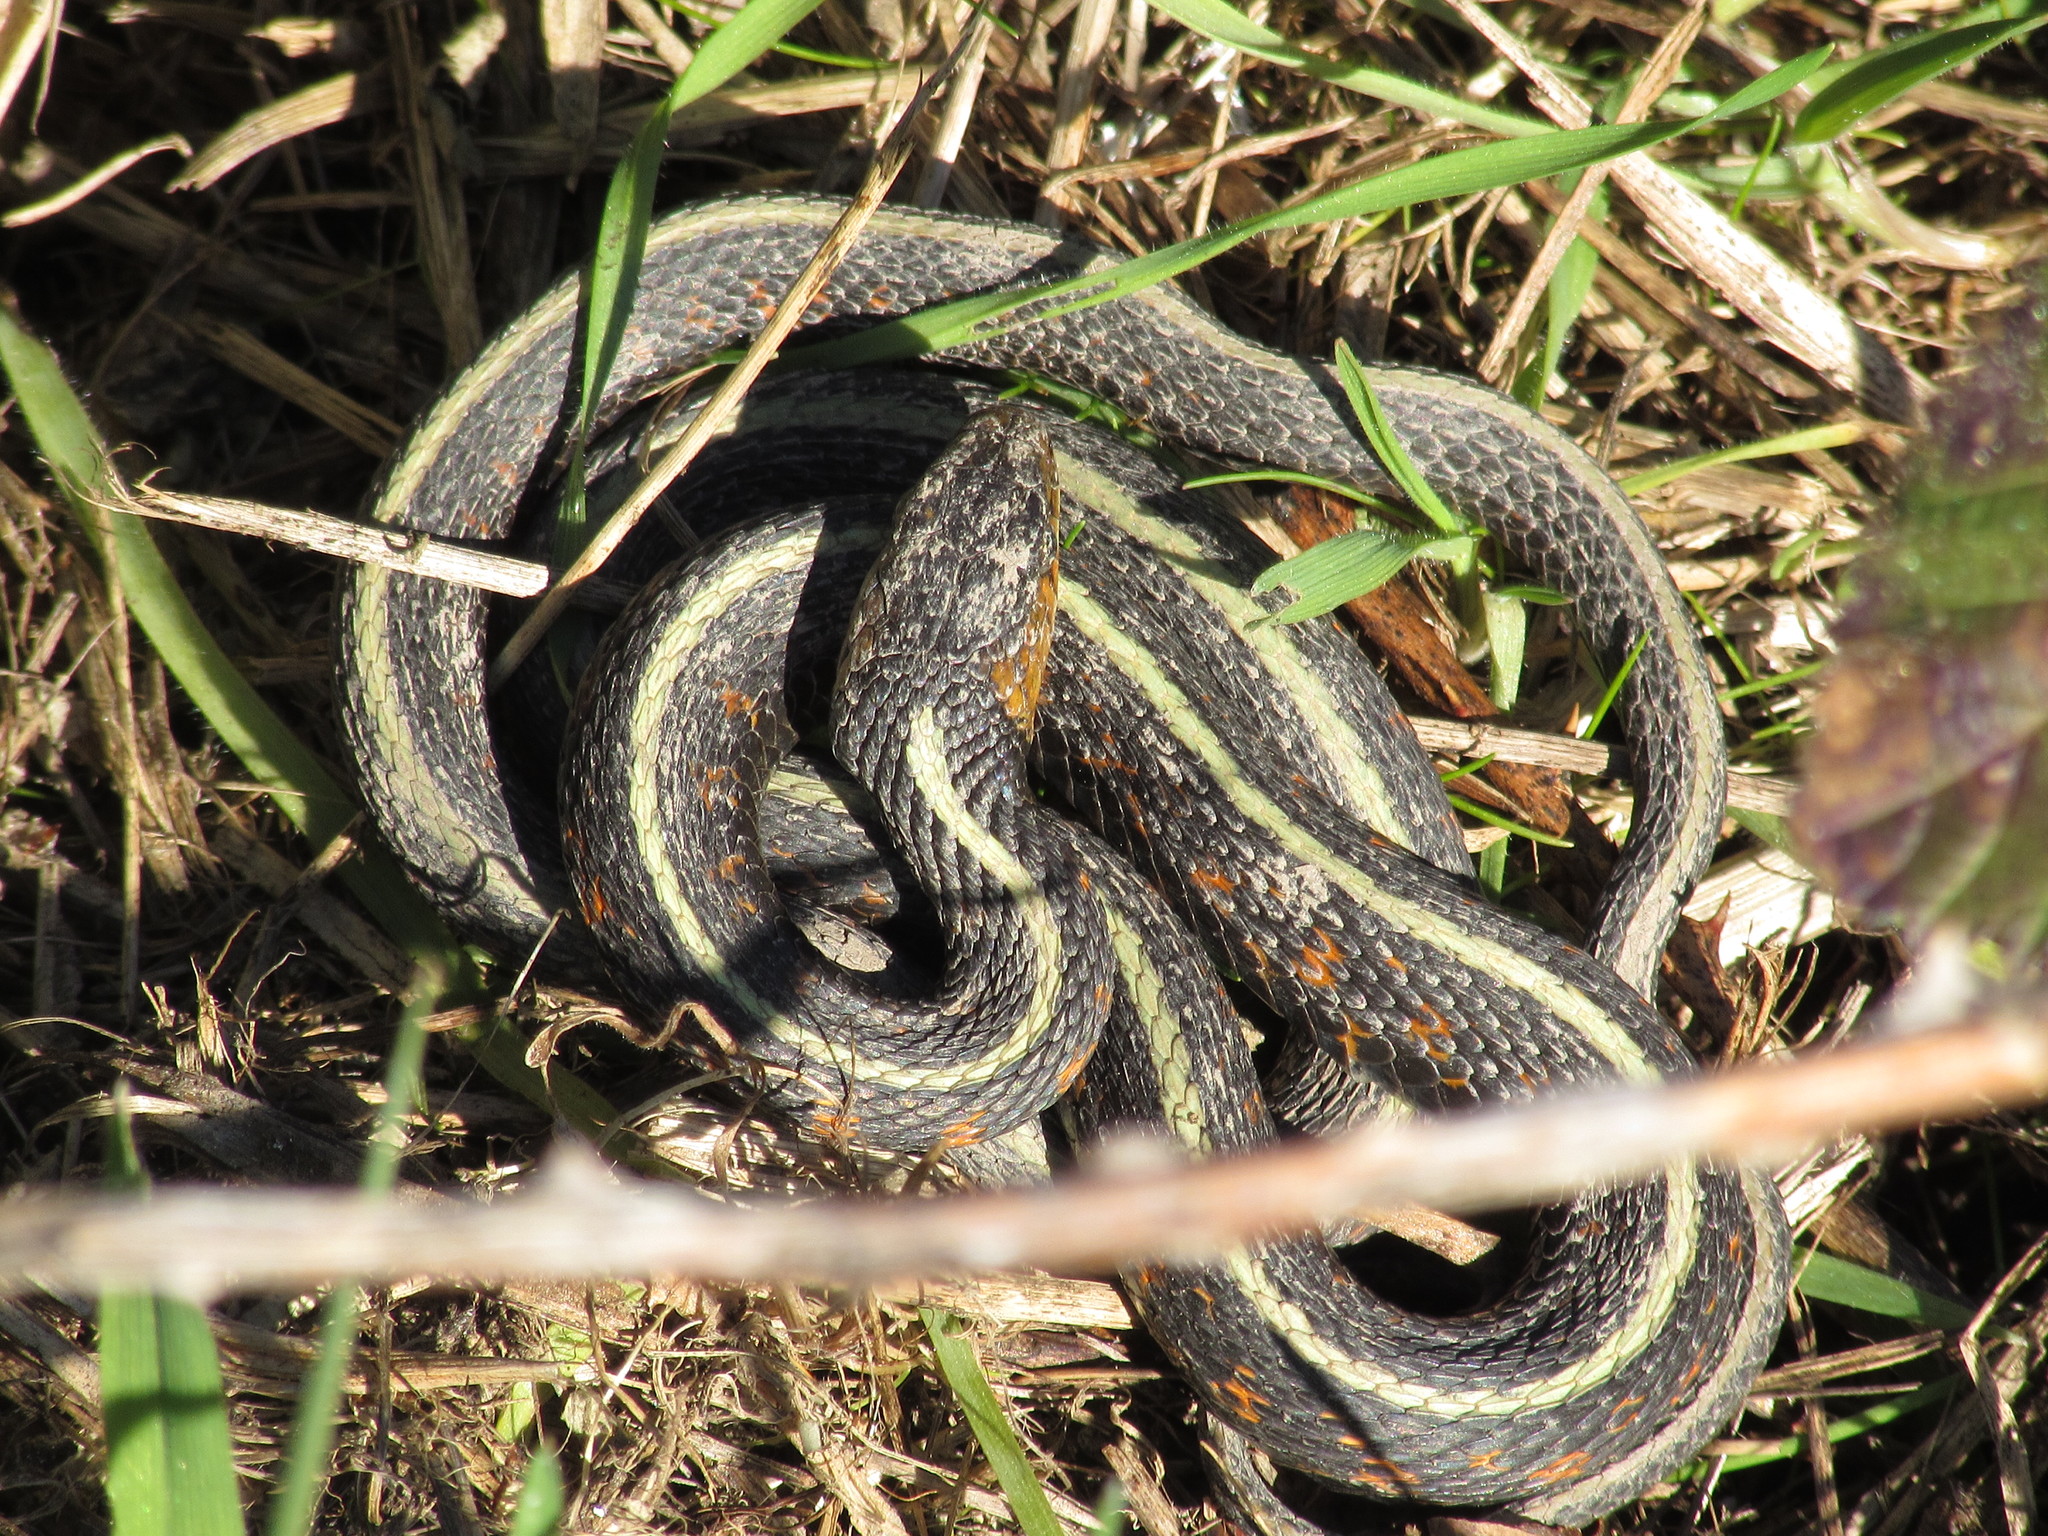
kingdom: Animalia
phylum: Chordata
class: Squamata
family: Colubridae
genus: Thamnophis
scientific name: Thamnophis sirtalis
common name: Common garter snake
